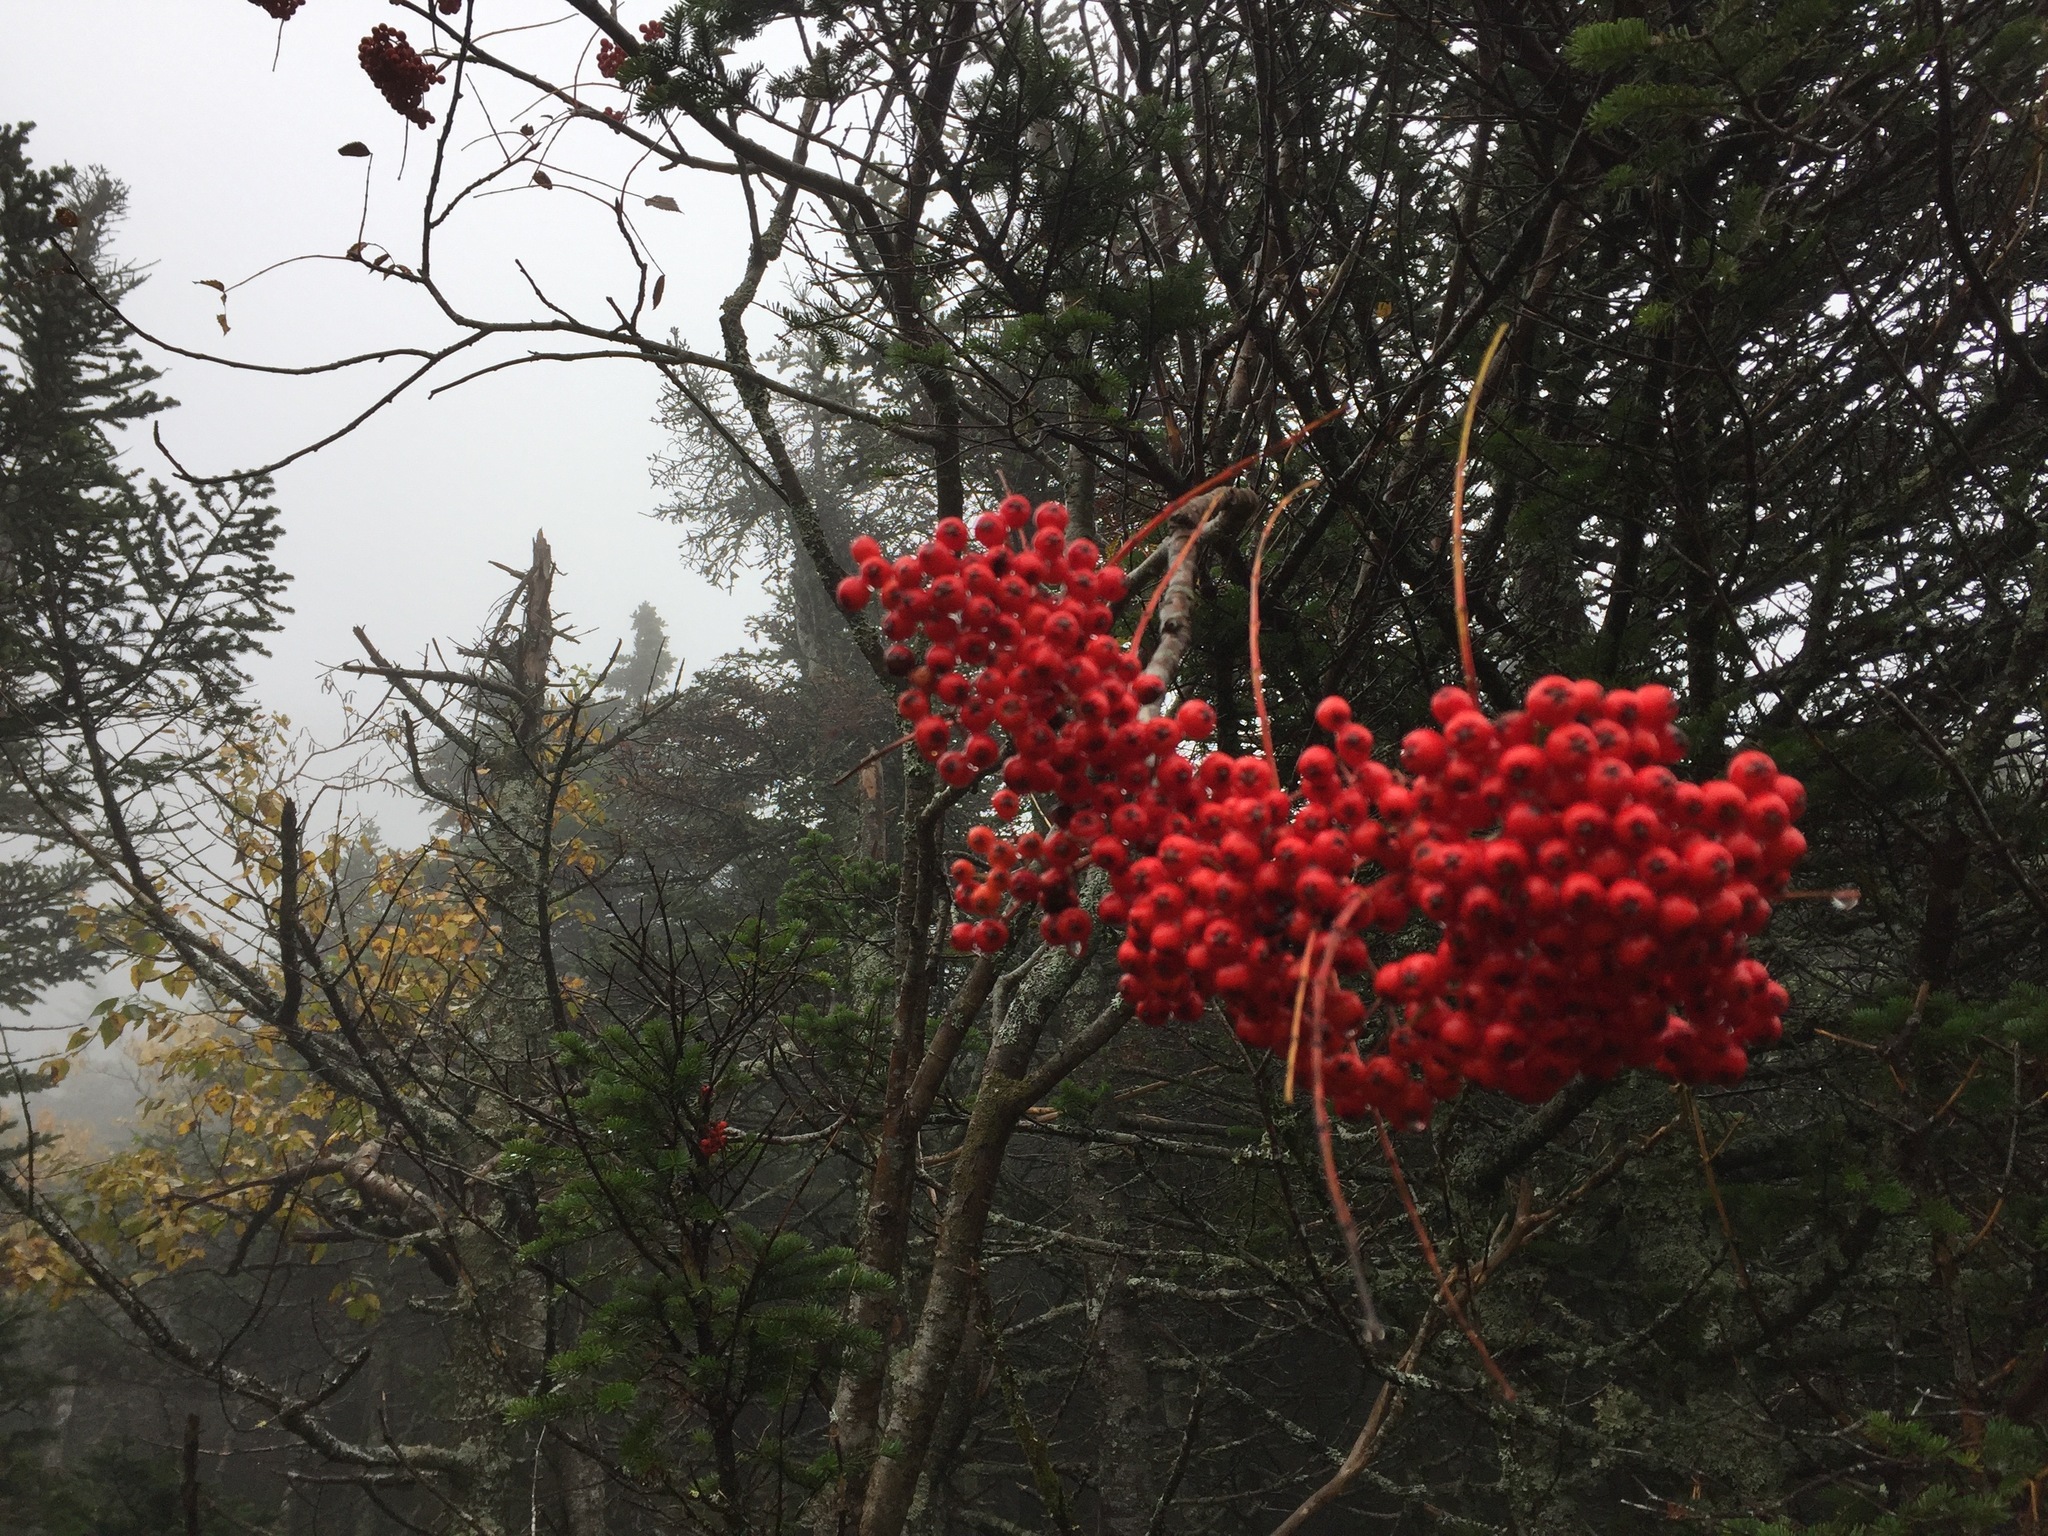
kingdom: Plantae
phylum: Tracheophyta
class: Magnoliopsida
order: Rosales
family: Rosaceae
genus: Sorbus
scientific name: Sorbus americana
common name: American mountain-ash
